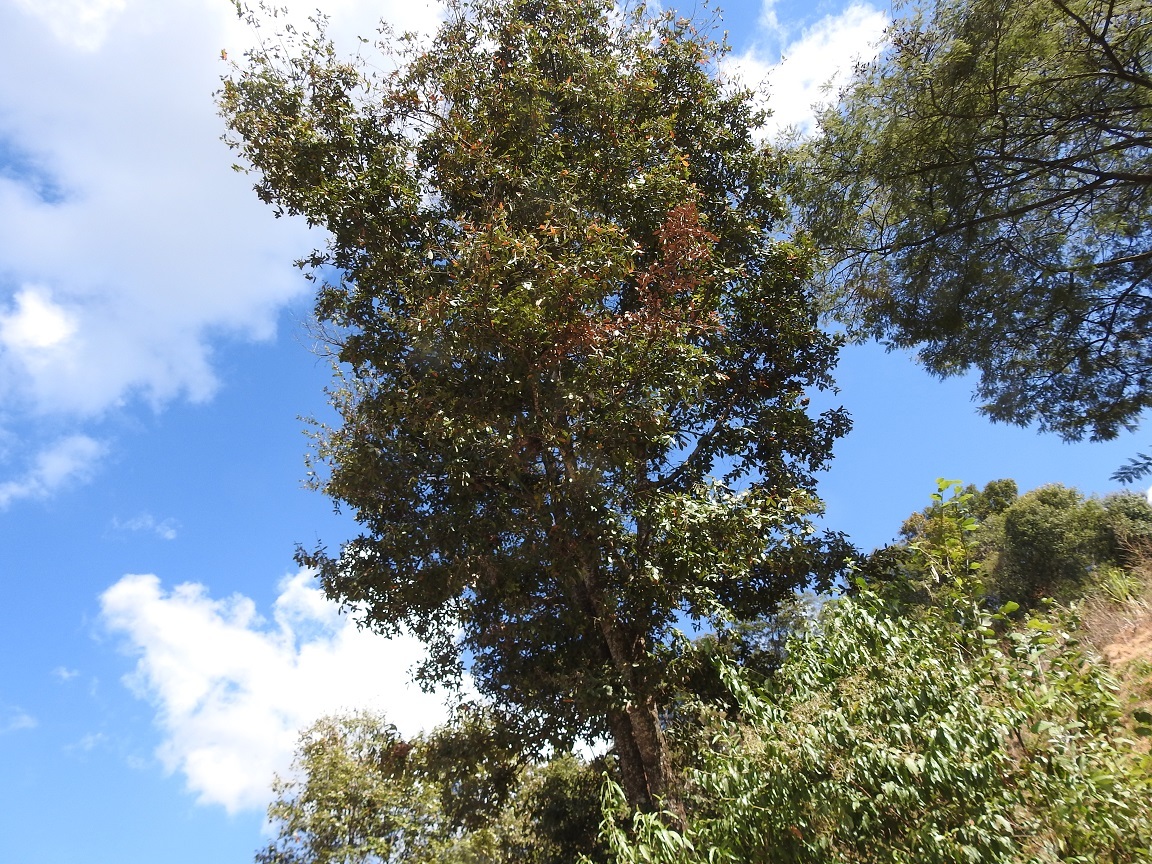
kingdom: Plantae
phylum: Tracheophyta
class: Magnoliopsida
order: Fagales
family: Fagaceae
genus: Quercus
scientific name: Quercus crispipilis
